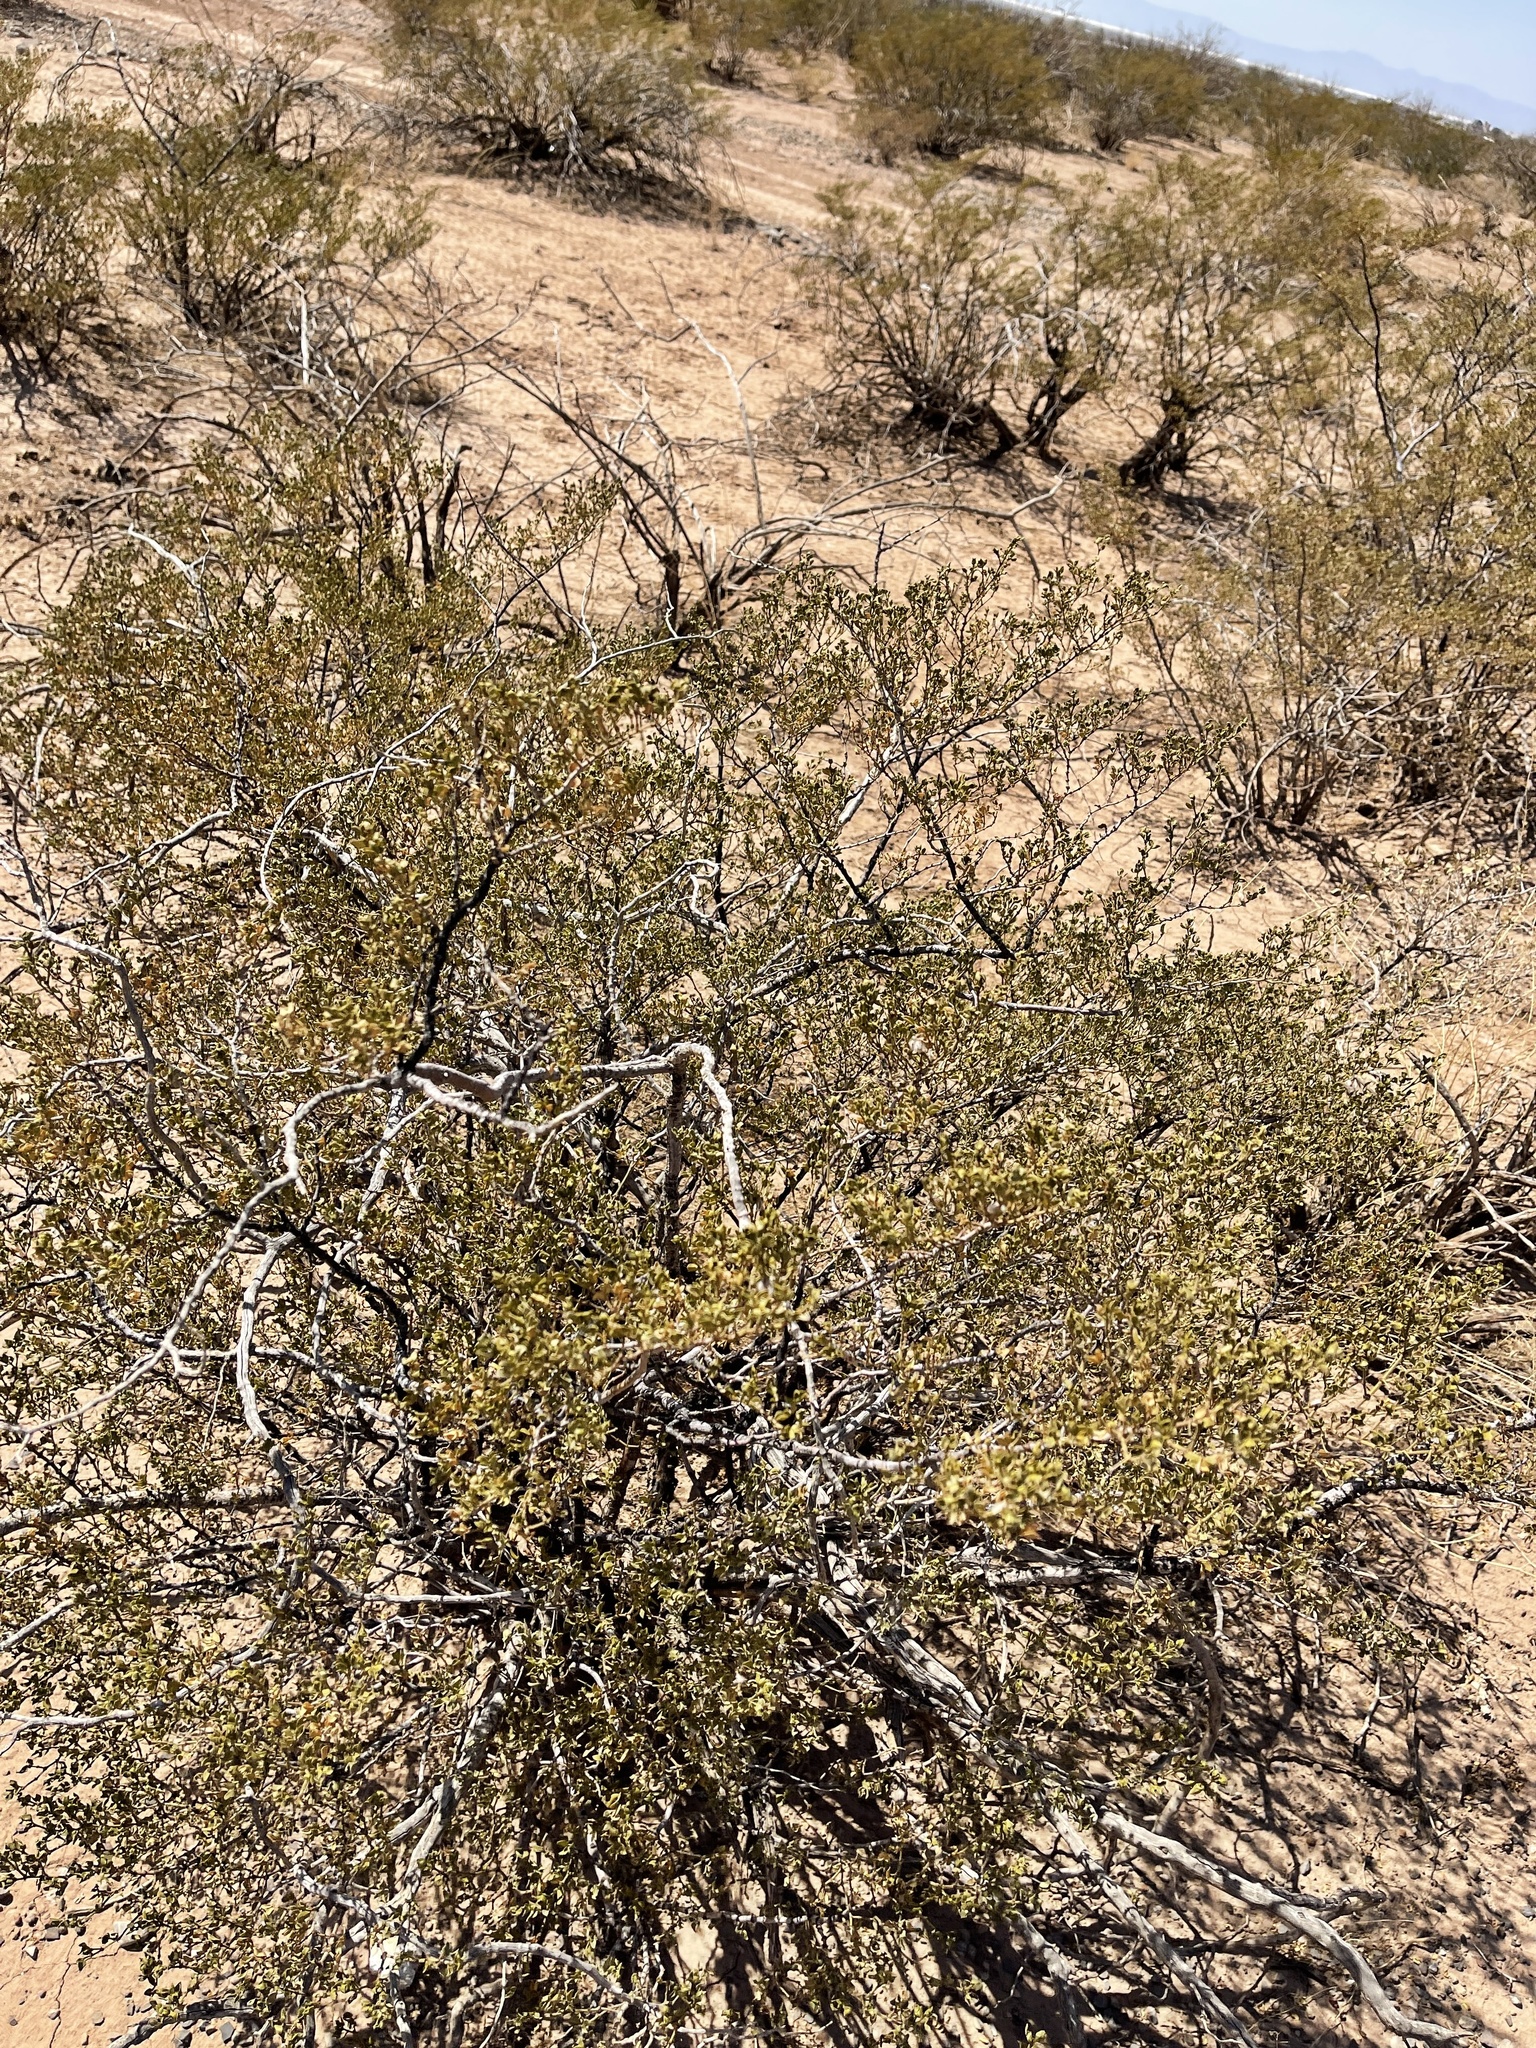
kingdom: Plantae
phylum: Tracheophyta
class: Magnoliopsida
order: Zygophyllales
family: Zygophyllaceae
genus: Larrea
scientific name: Larrea tridentata
